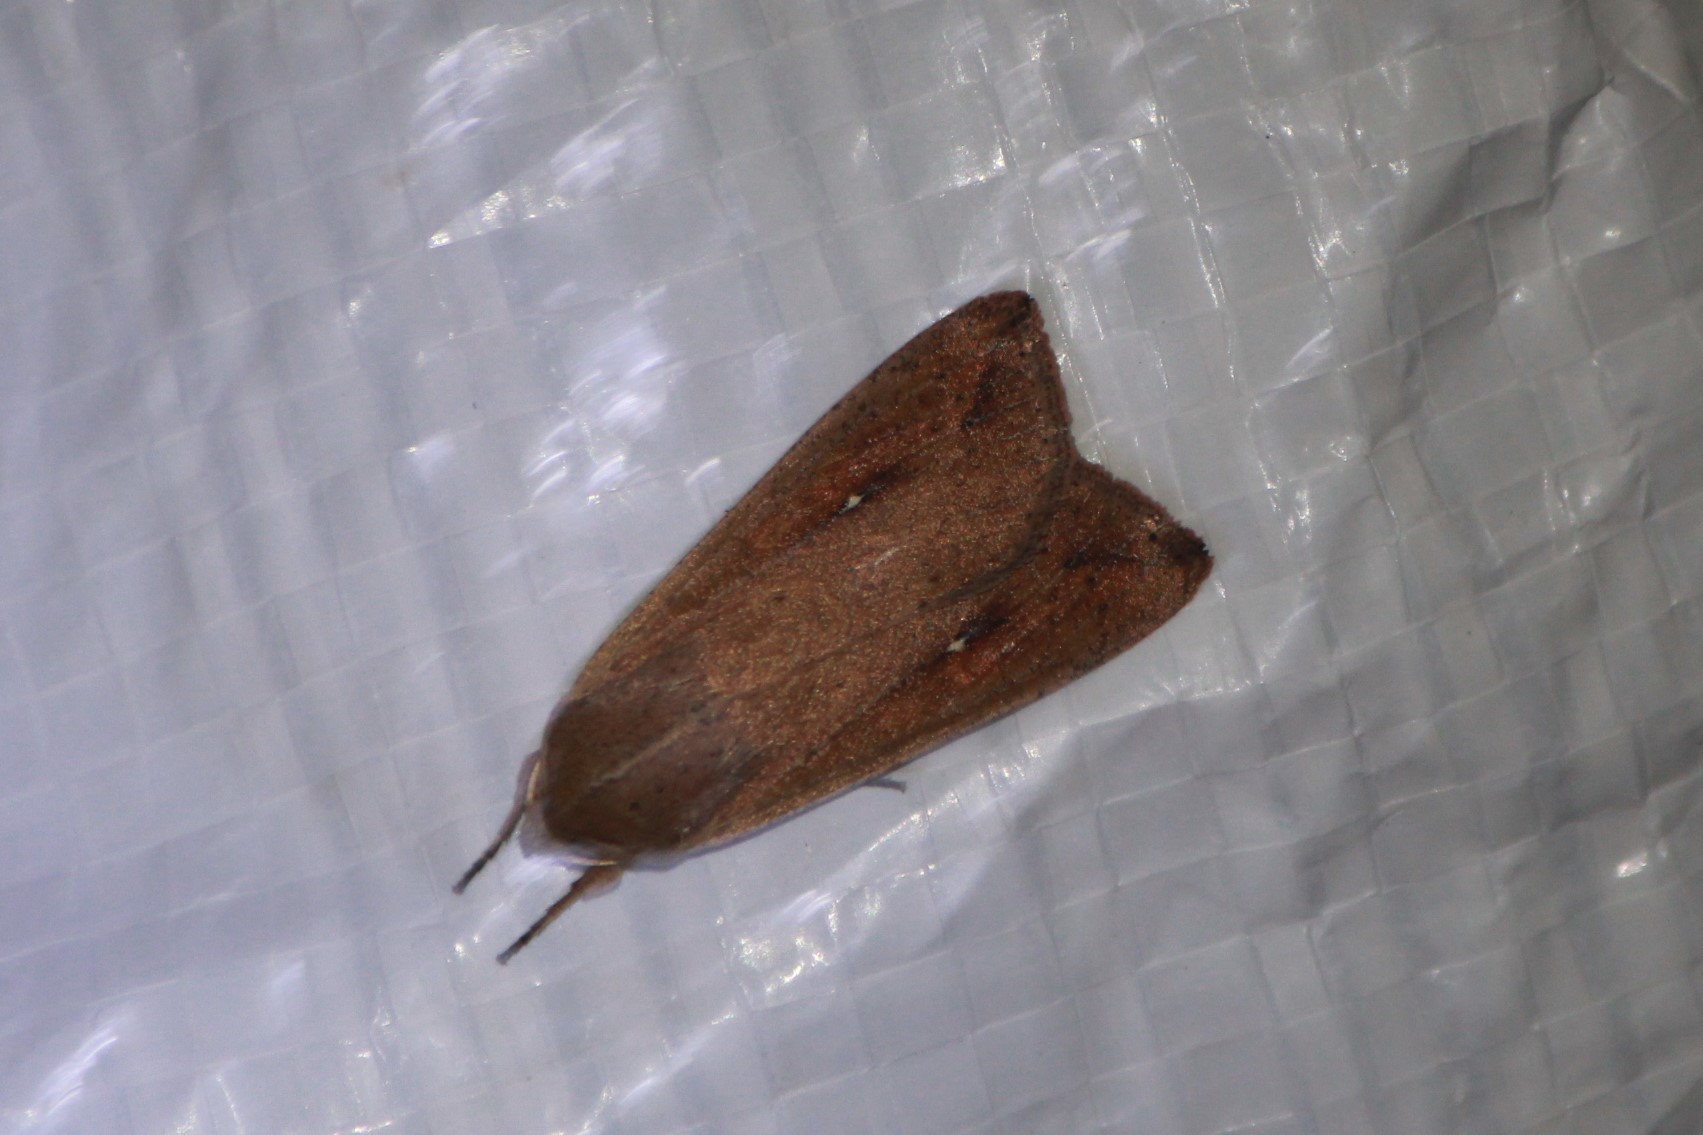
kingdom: Animalia
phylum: Arthropoda
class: Insecta
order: Lepidoptera
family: Noctuidae
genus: Mythimna
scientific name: Mythimna unipuncta
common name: White-speck
